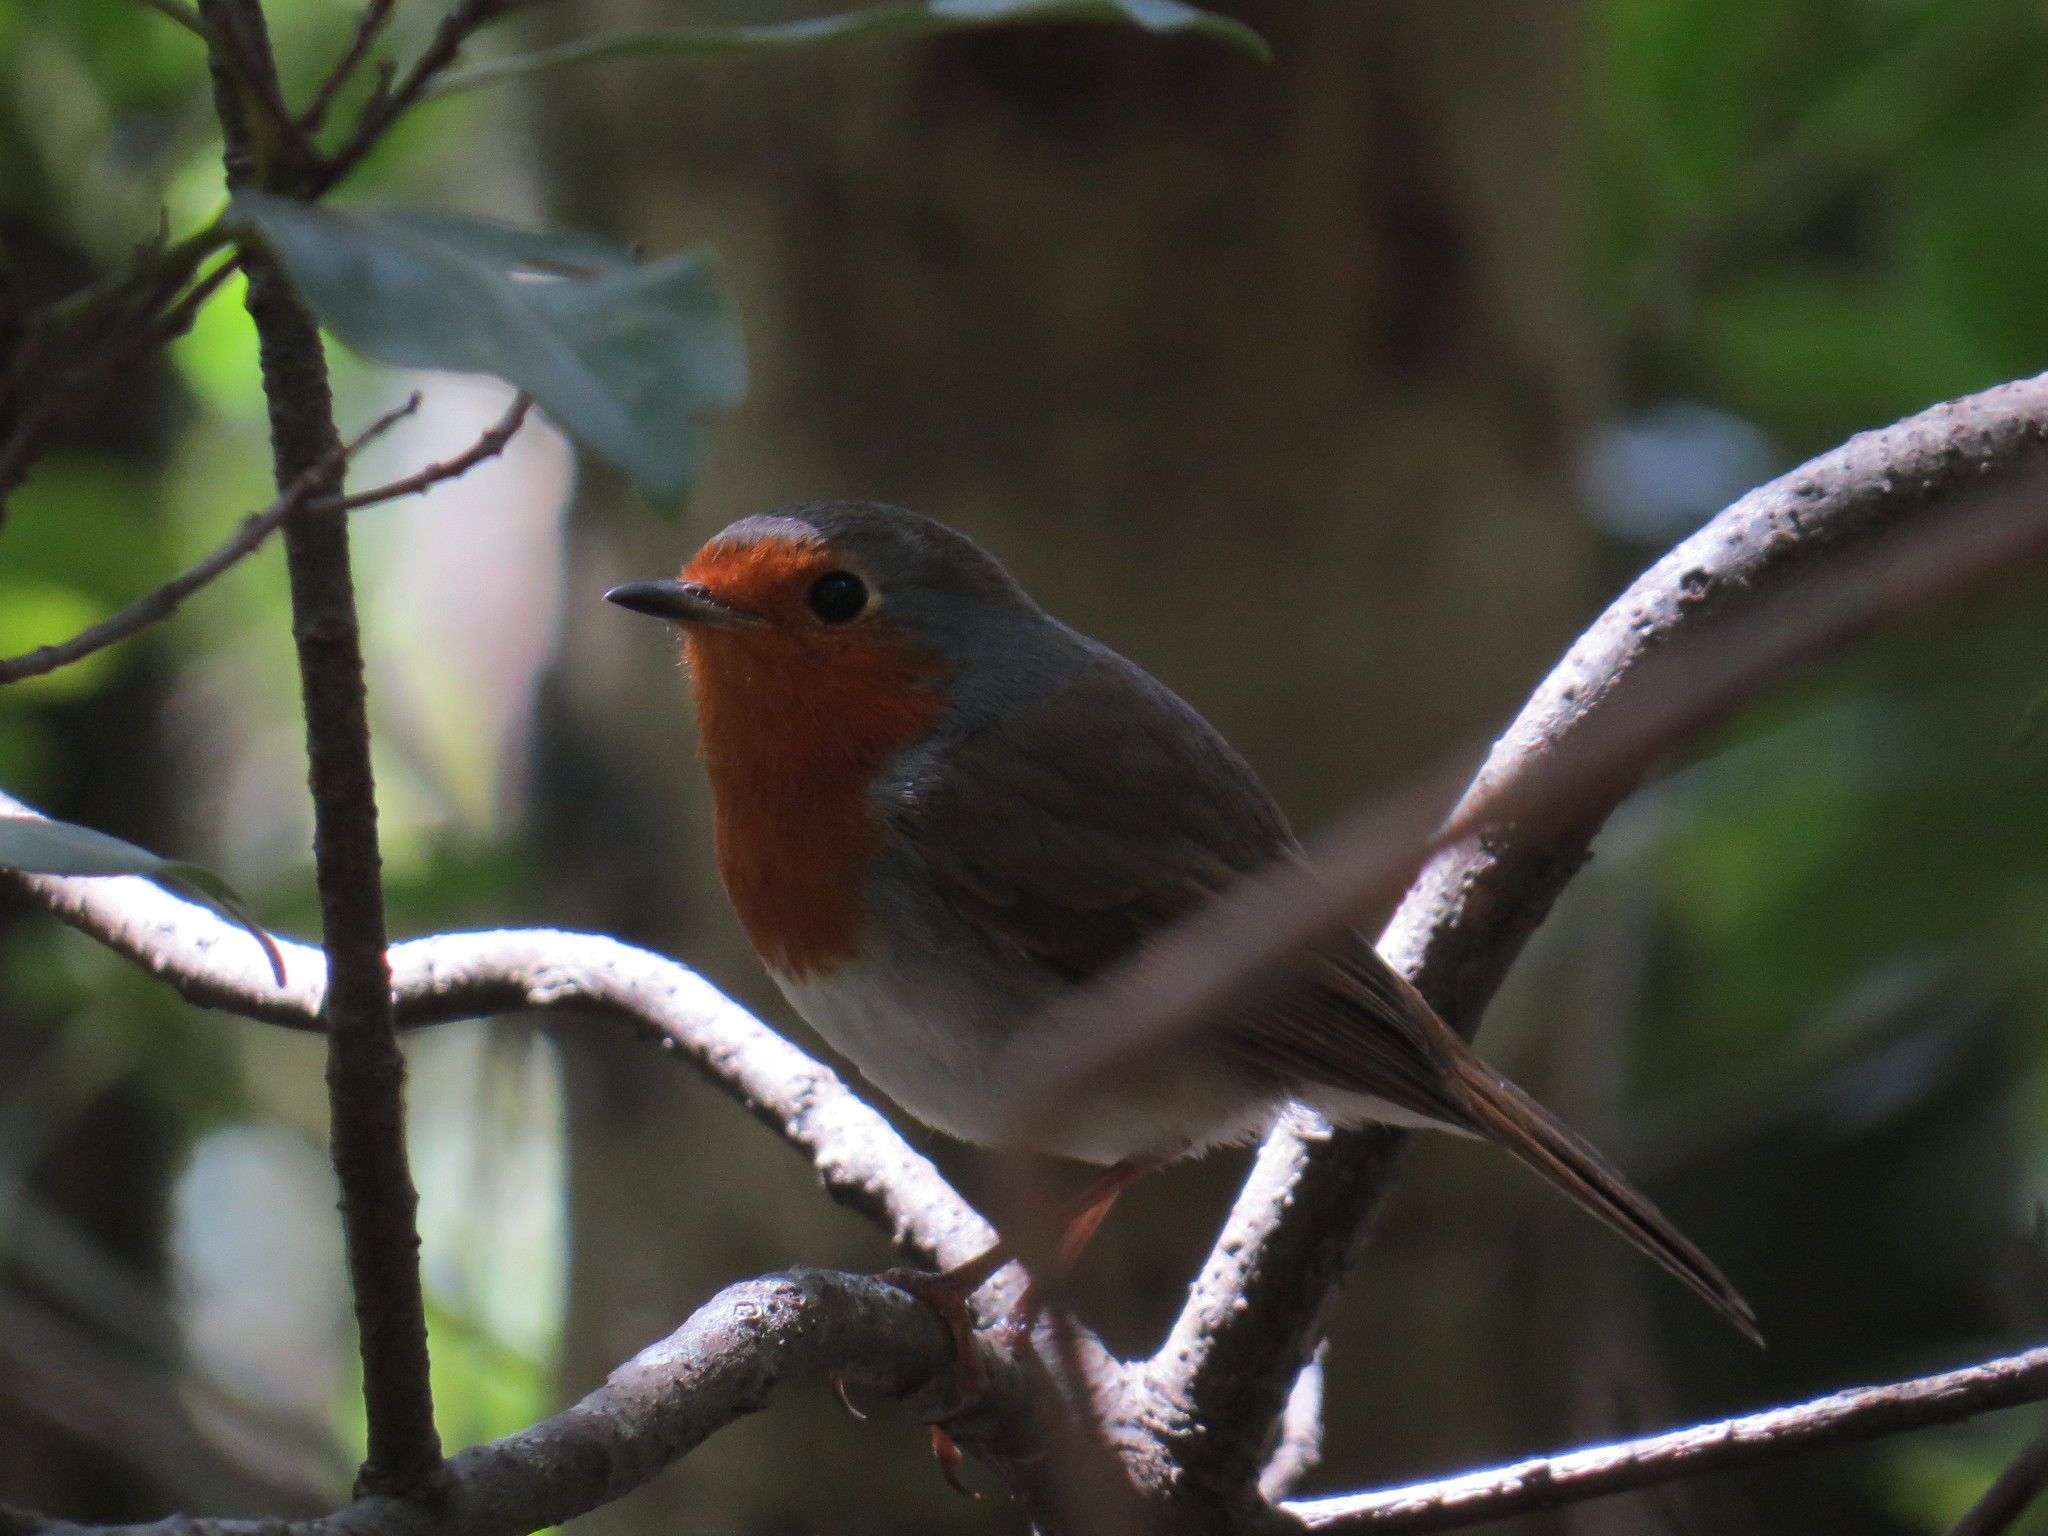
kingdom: Animalia
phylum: Chordata
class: Aves
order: Passeriformes
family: Muscicapidae
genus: Erithacus
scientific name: Erithacus rubecula
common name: European robin
